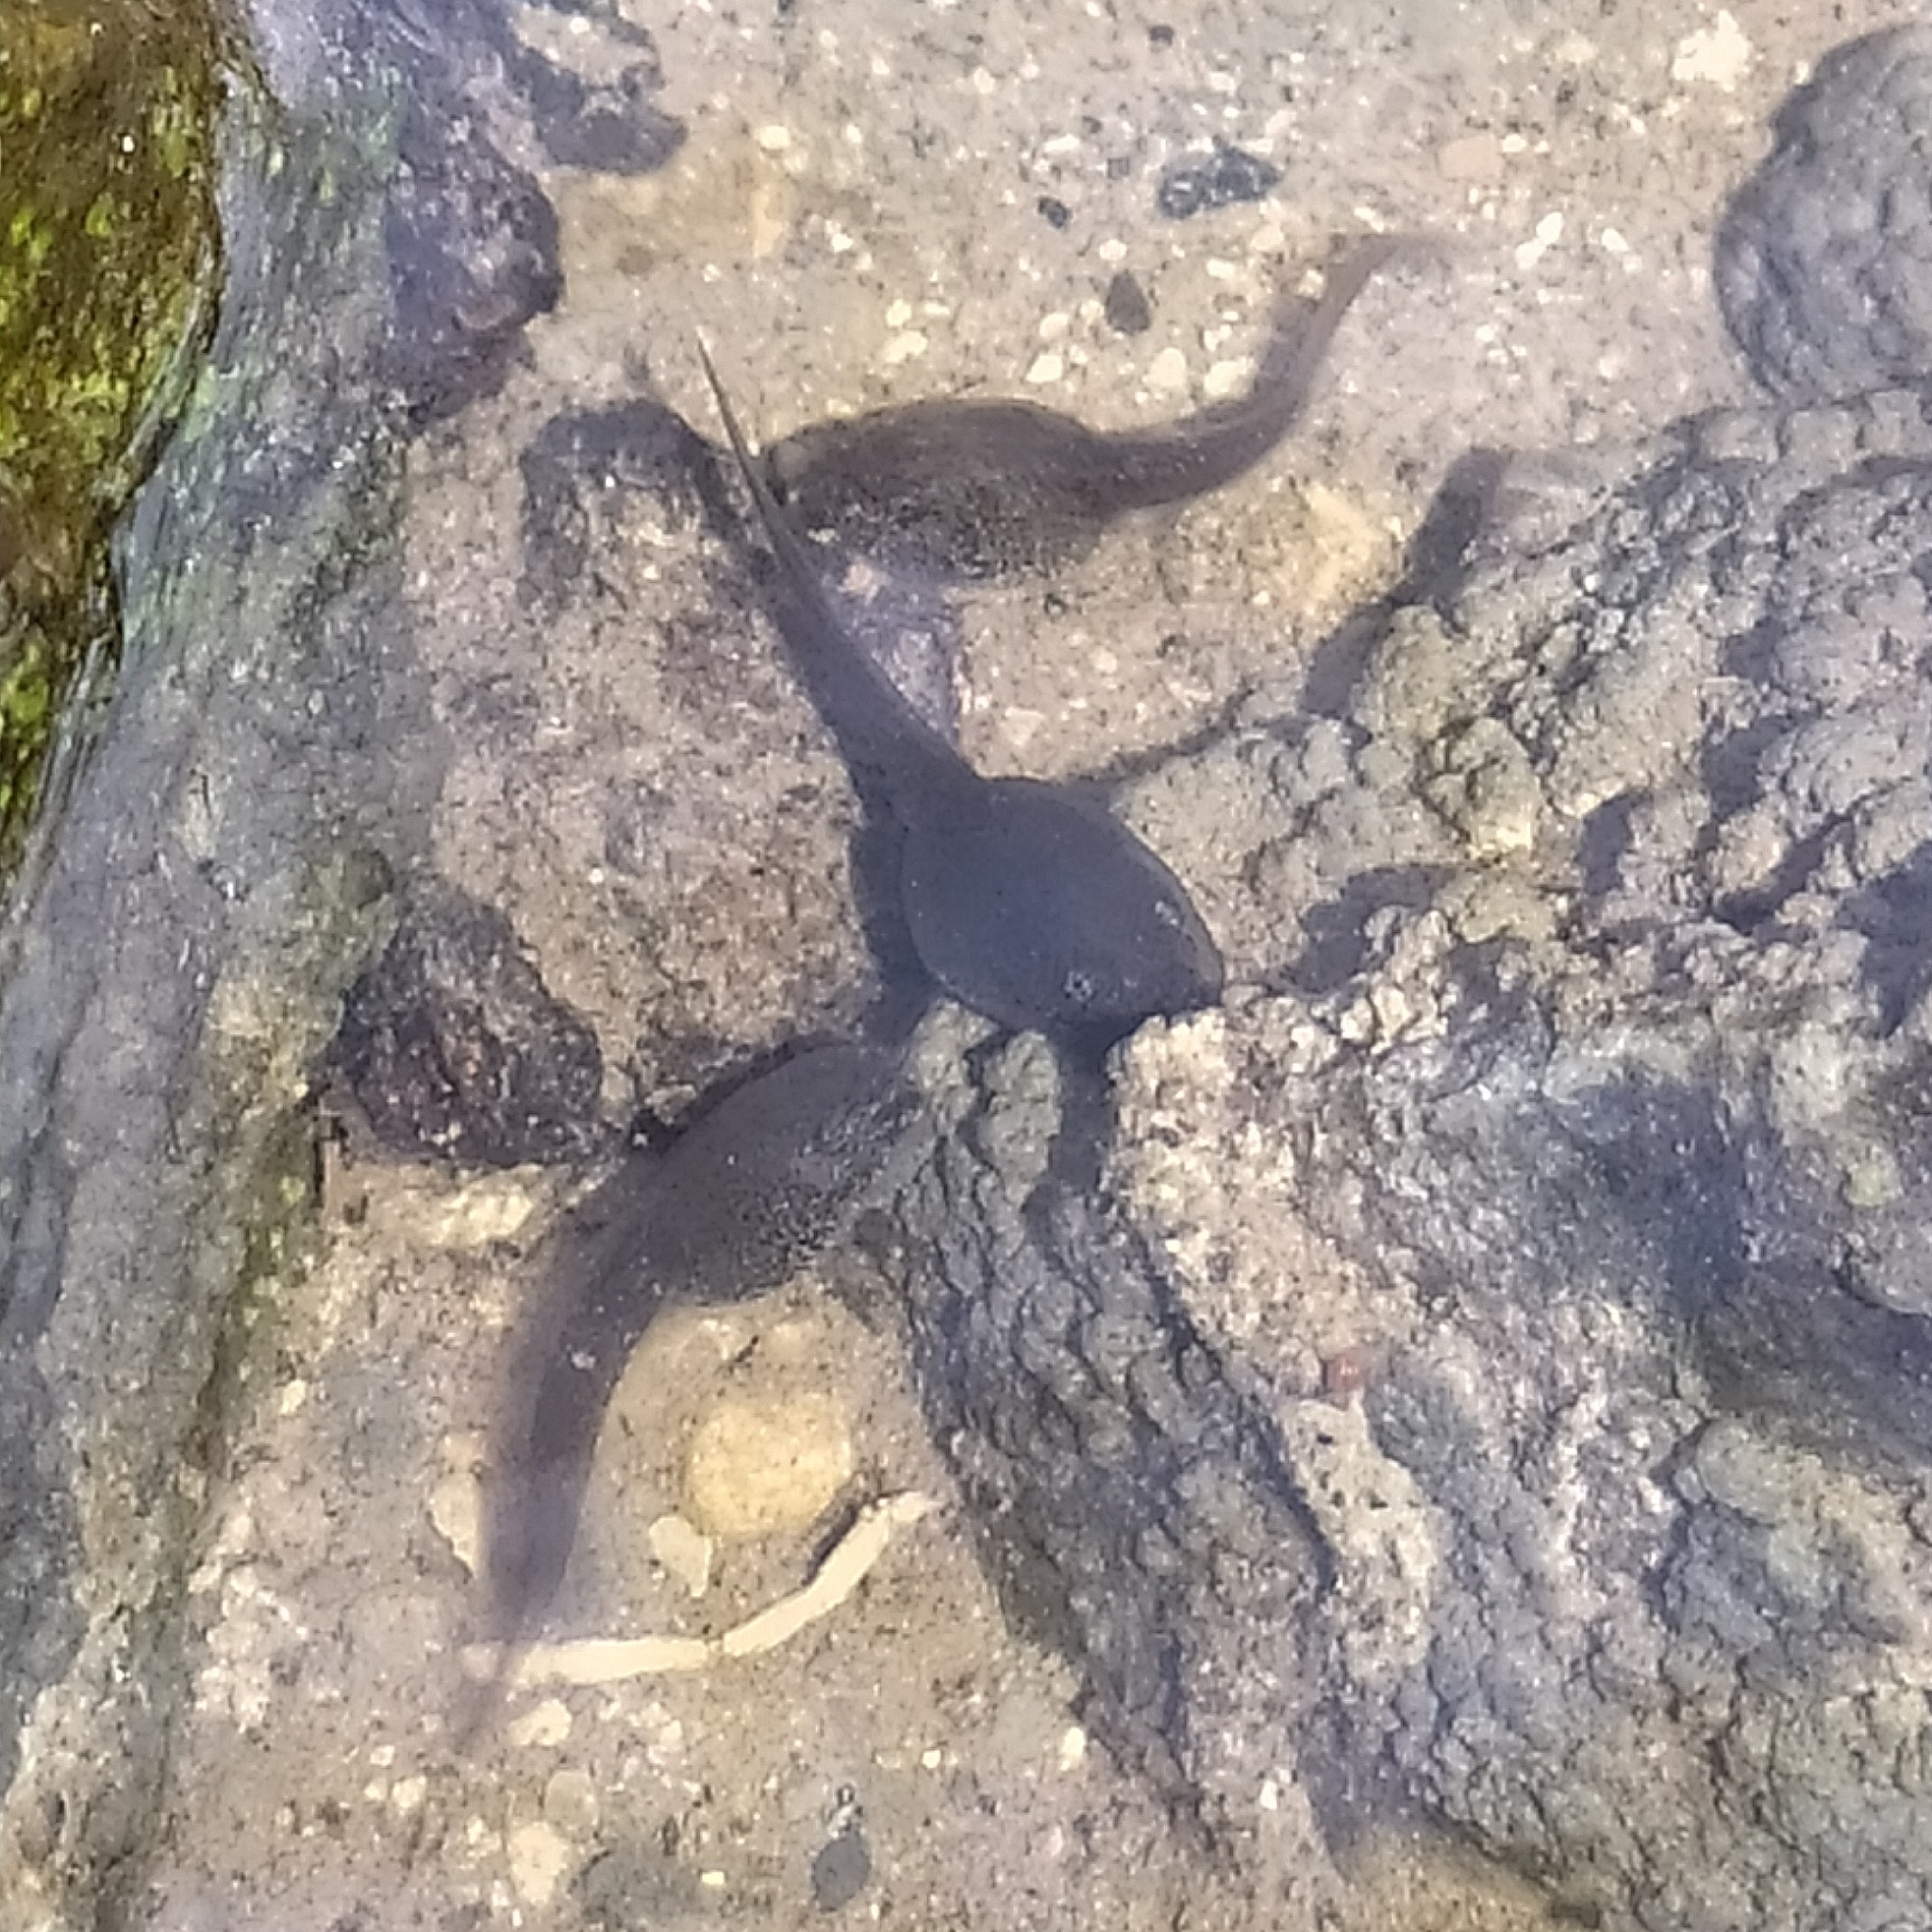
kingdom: Animalia
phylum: Chordata
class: Amphibia
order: Anura
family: Ranidae
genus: Rana
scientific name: Rana italica
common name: Italian stream frog
